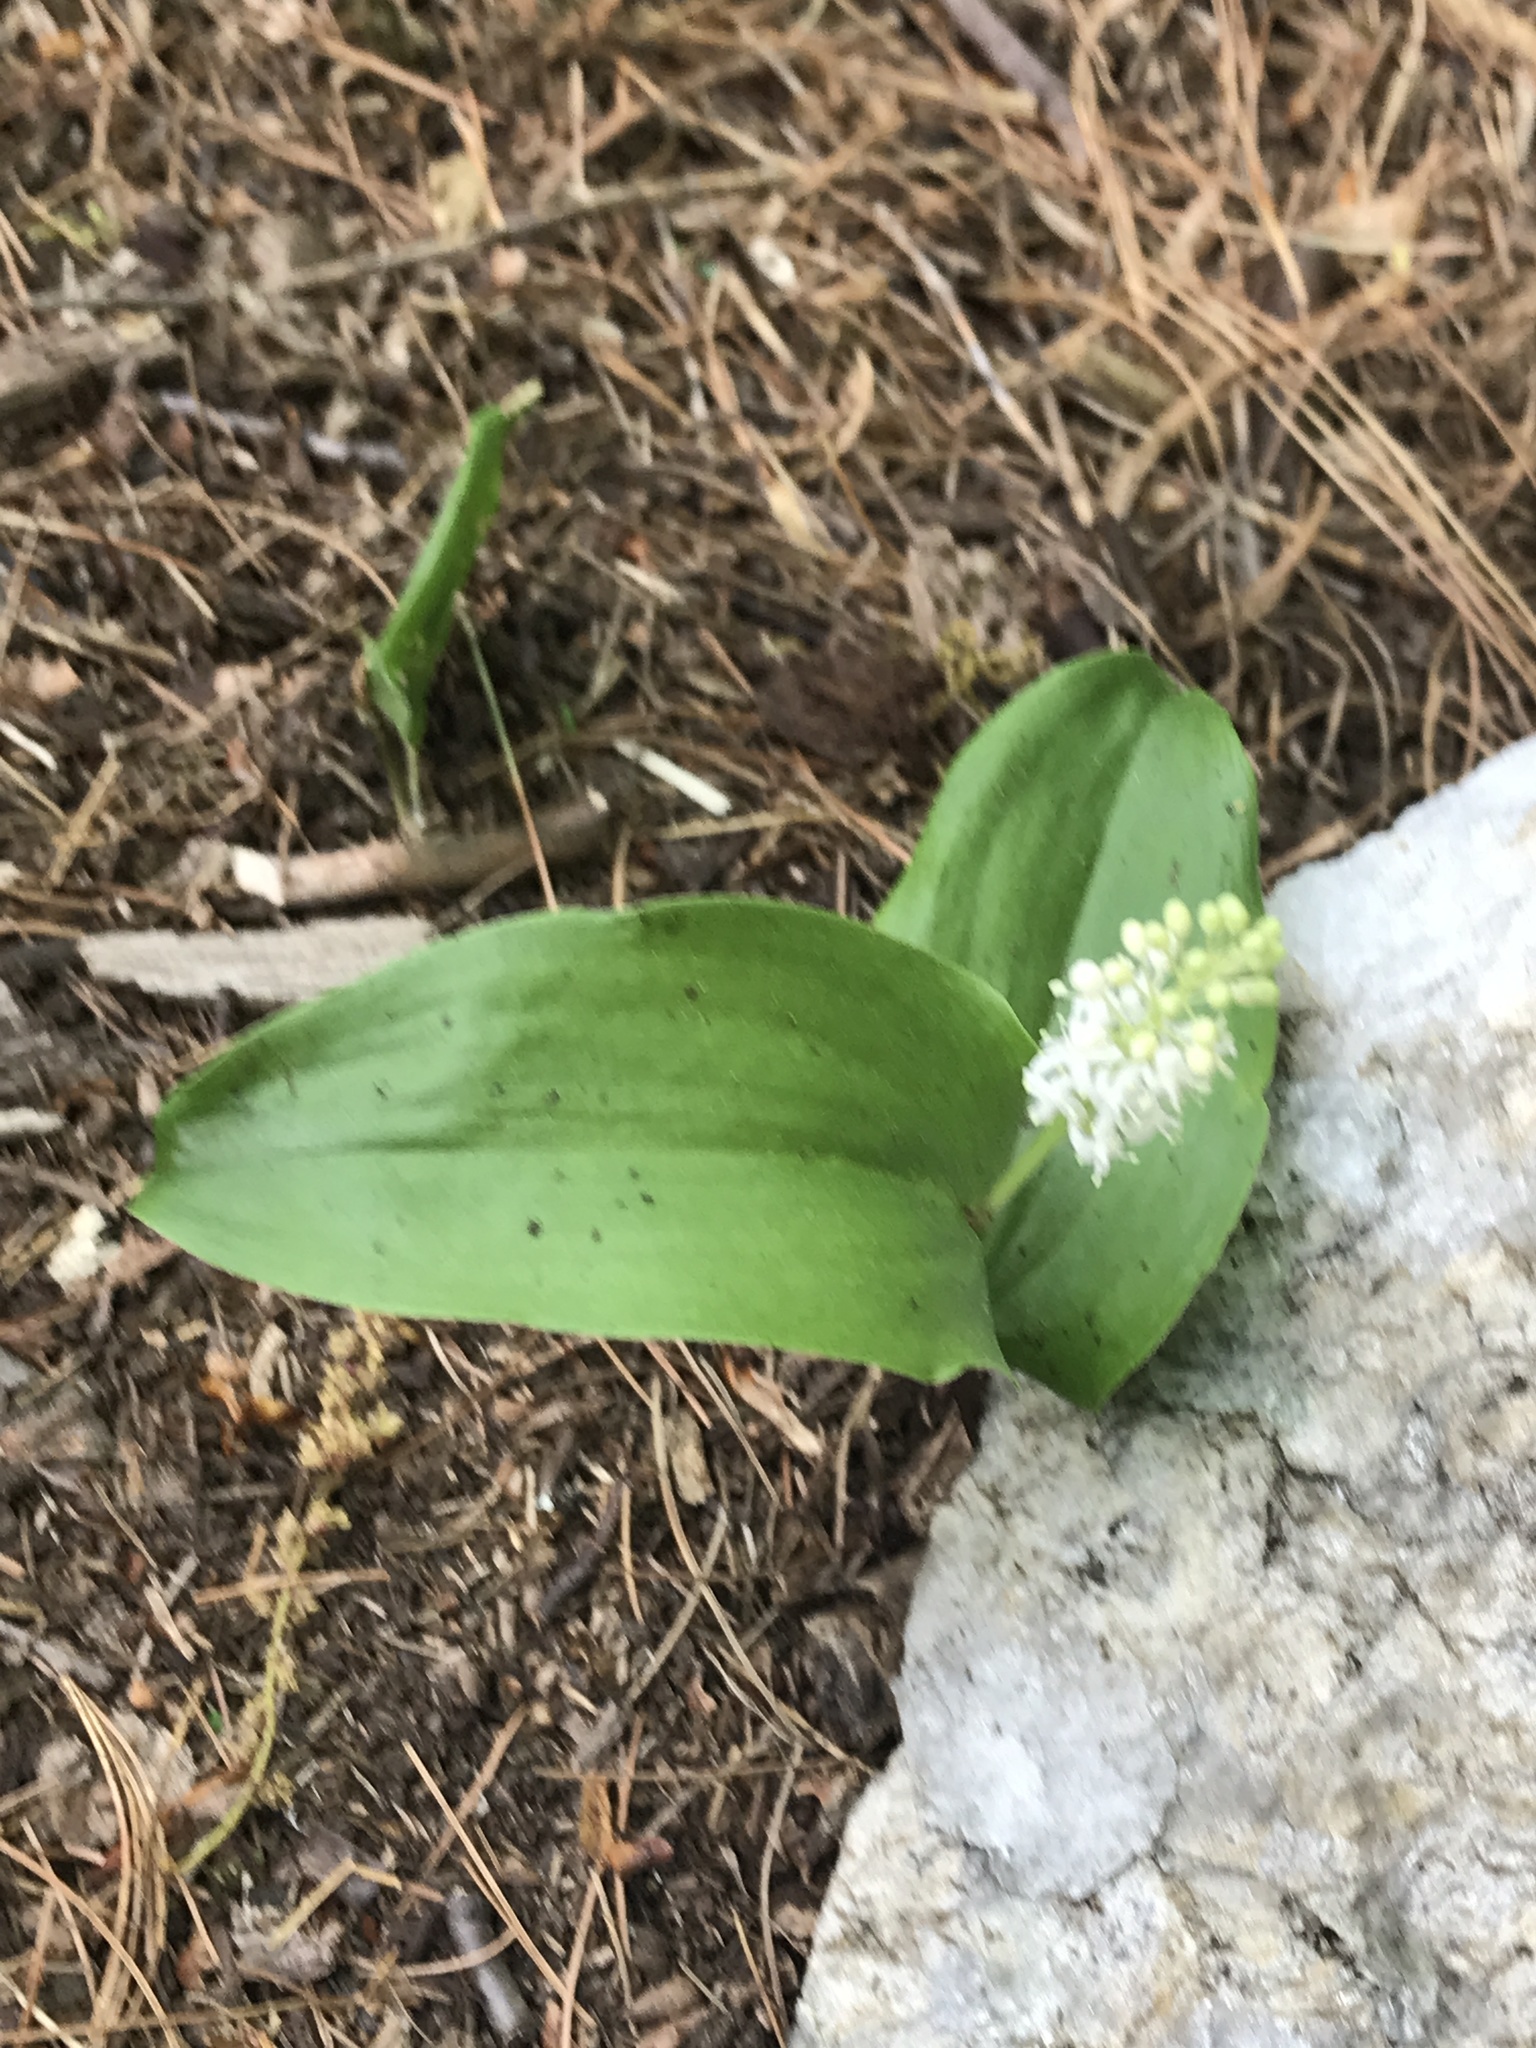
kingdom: Plantae
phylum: Tracheophyta
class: Liliopsida
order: Asparagales
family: Asparagaceae
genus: Maianthemum
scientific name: Maianthemum canadense
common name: False lily-of-the-valley
